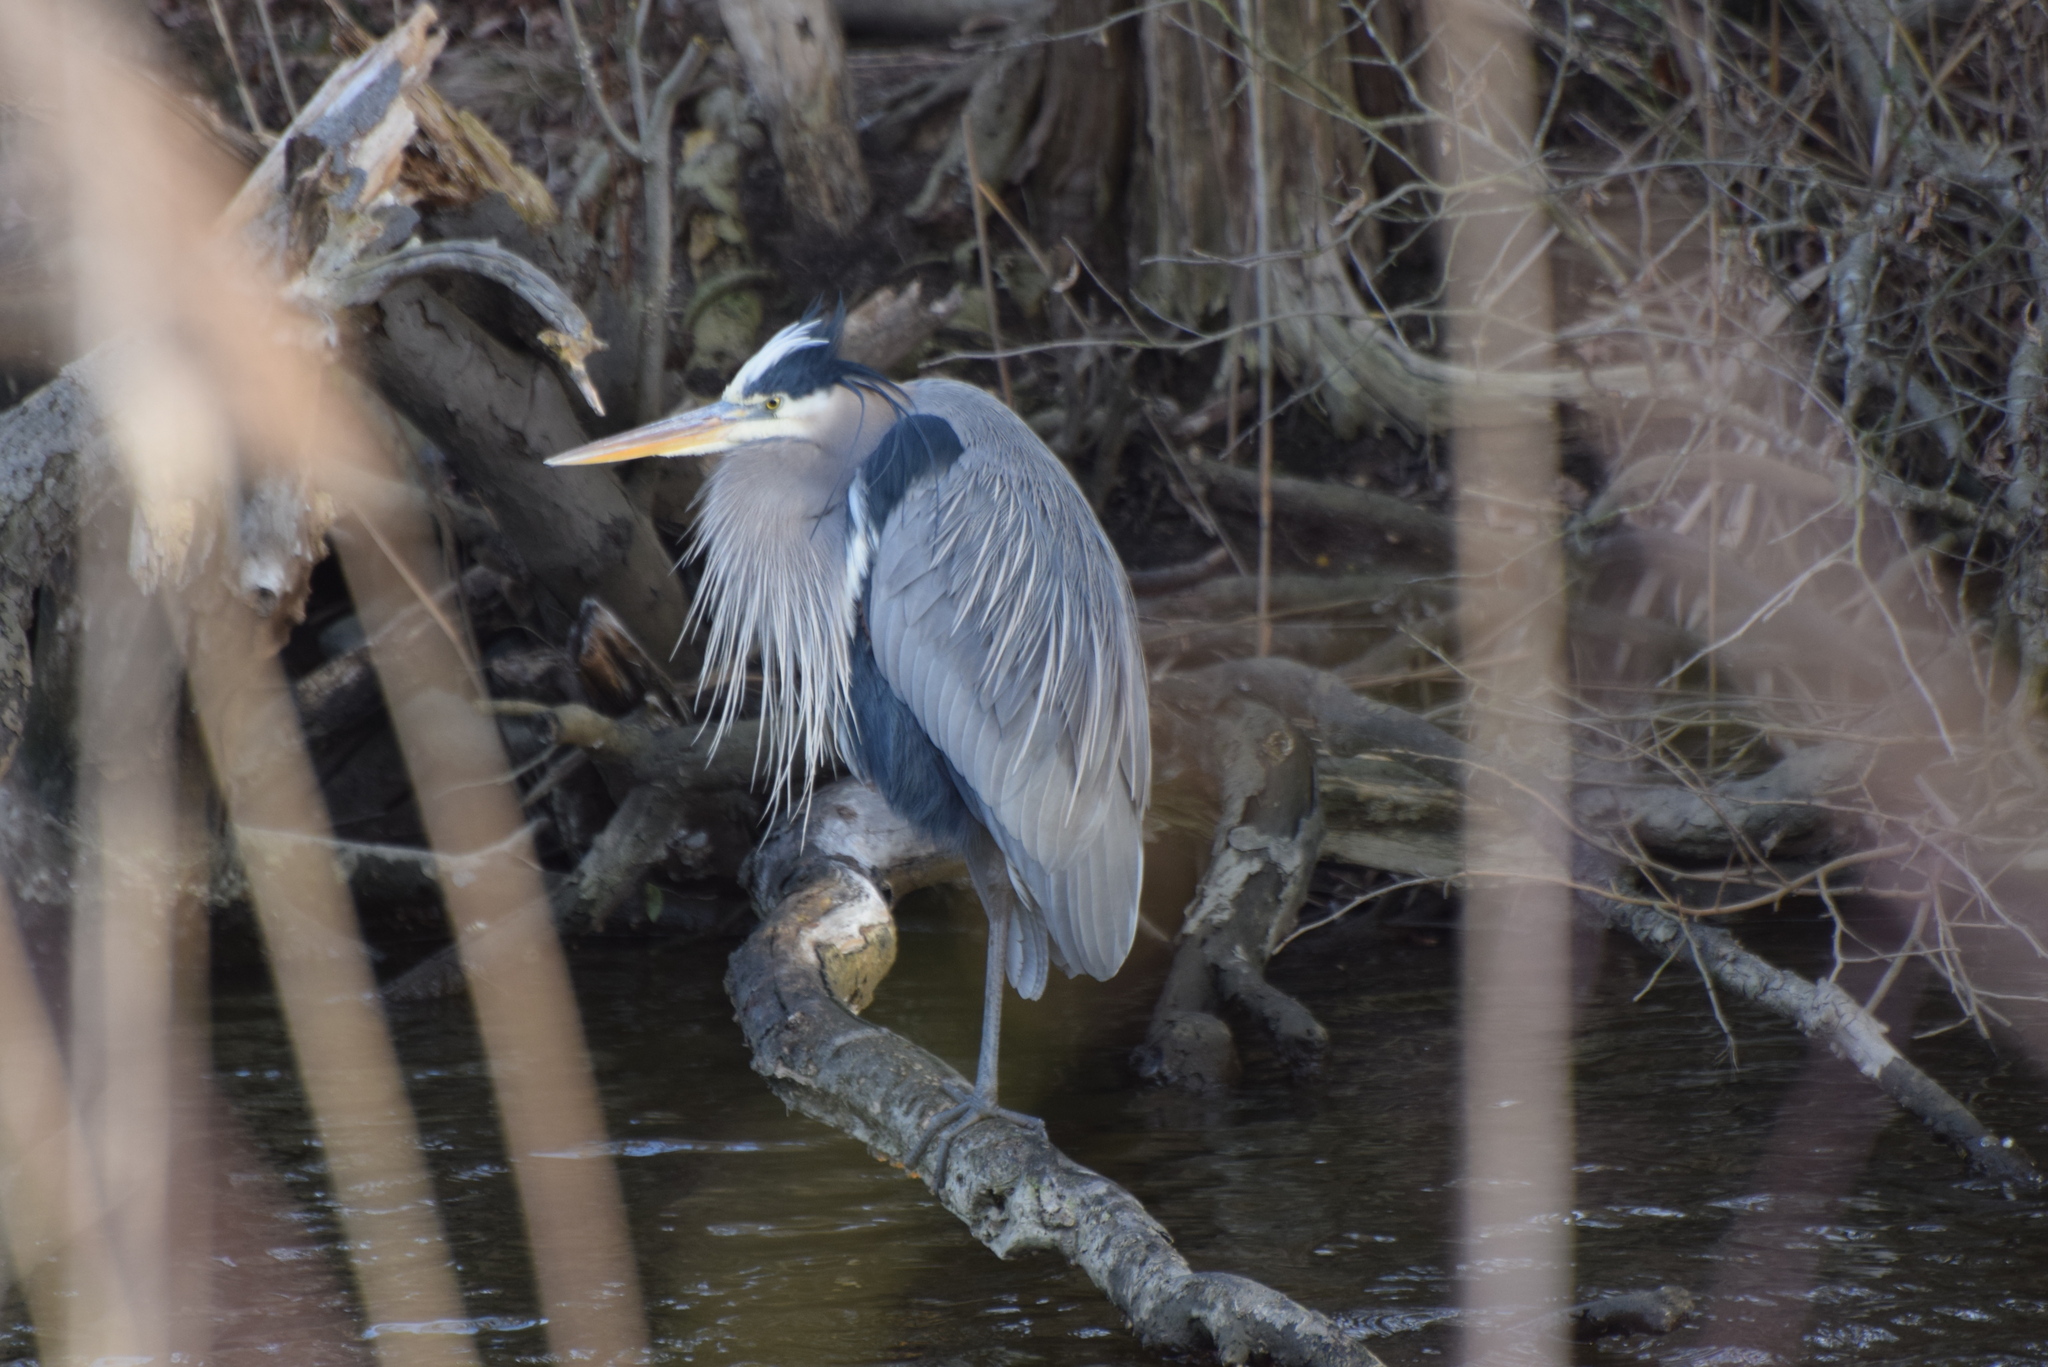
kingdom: Animalia
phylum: Chordata
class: Aves
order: Pelecaniformes
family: Ardeidae
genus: Ardea
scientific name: Ardea herodias
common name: Great blue heron
